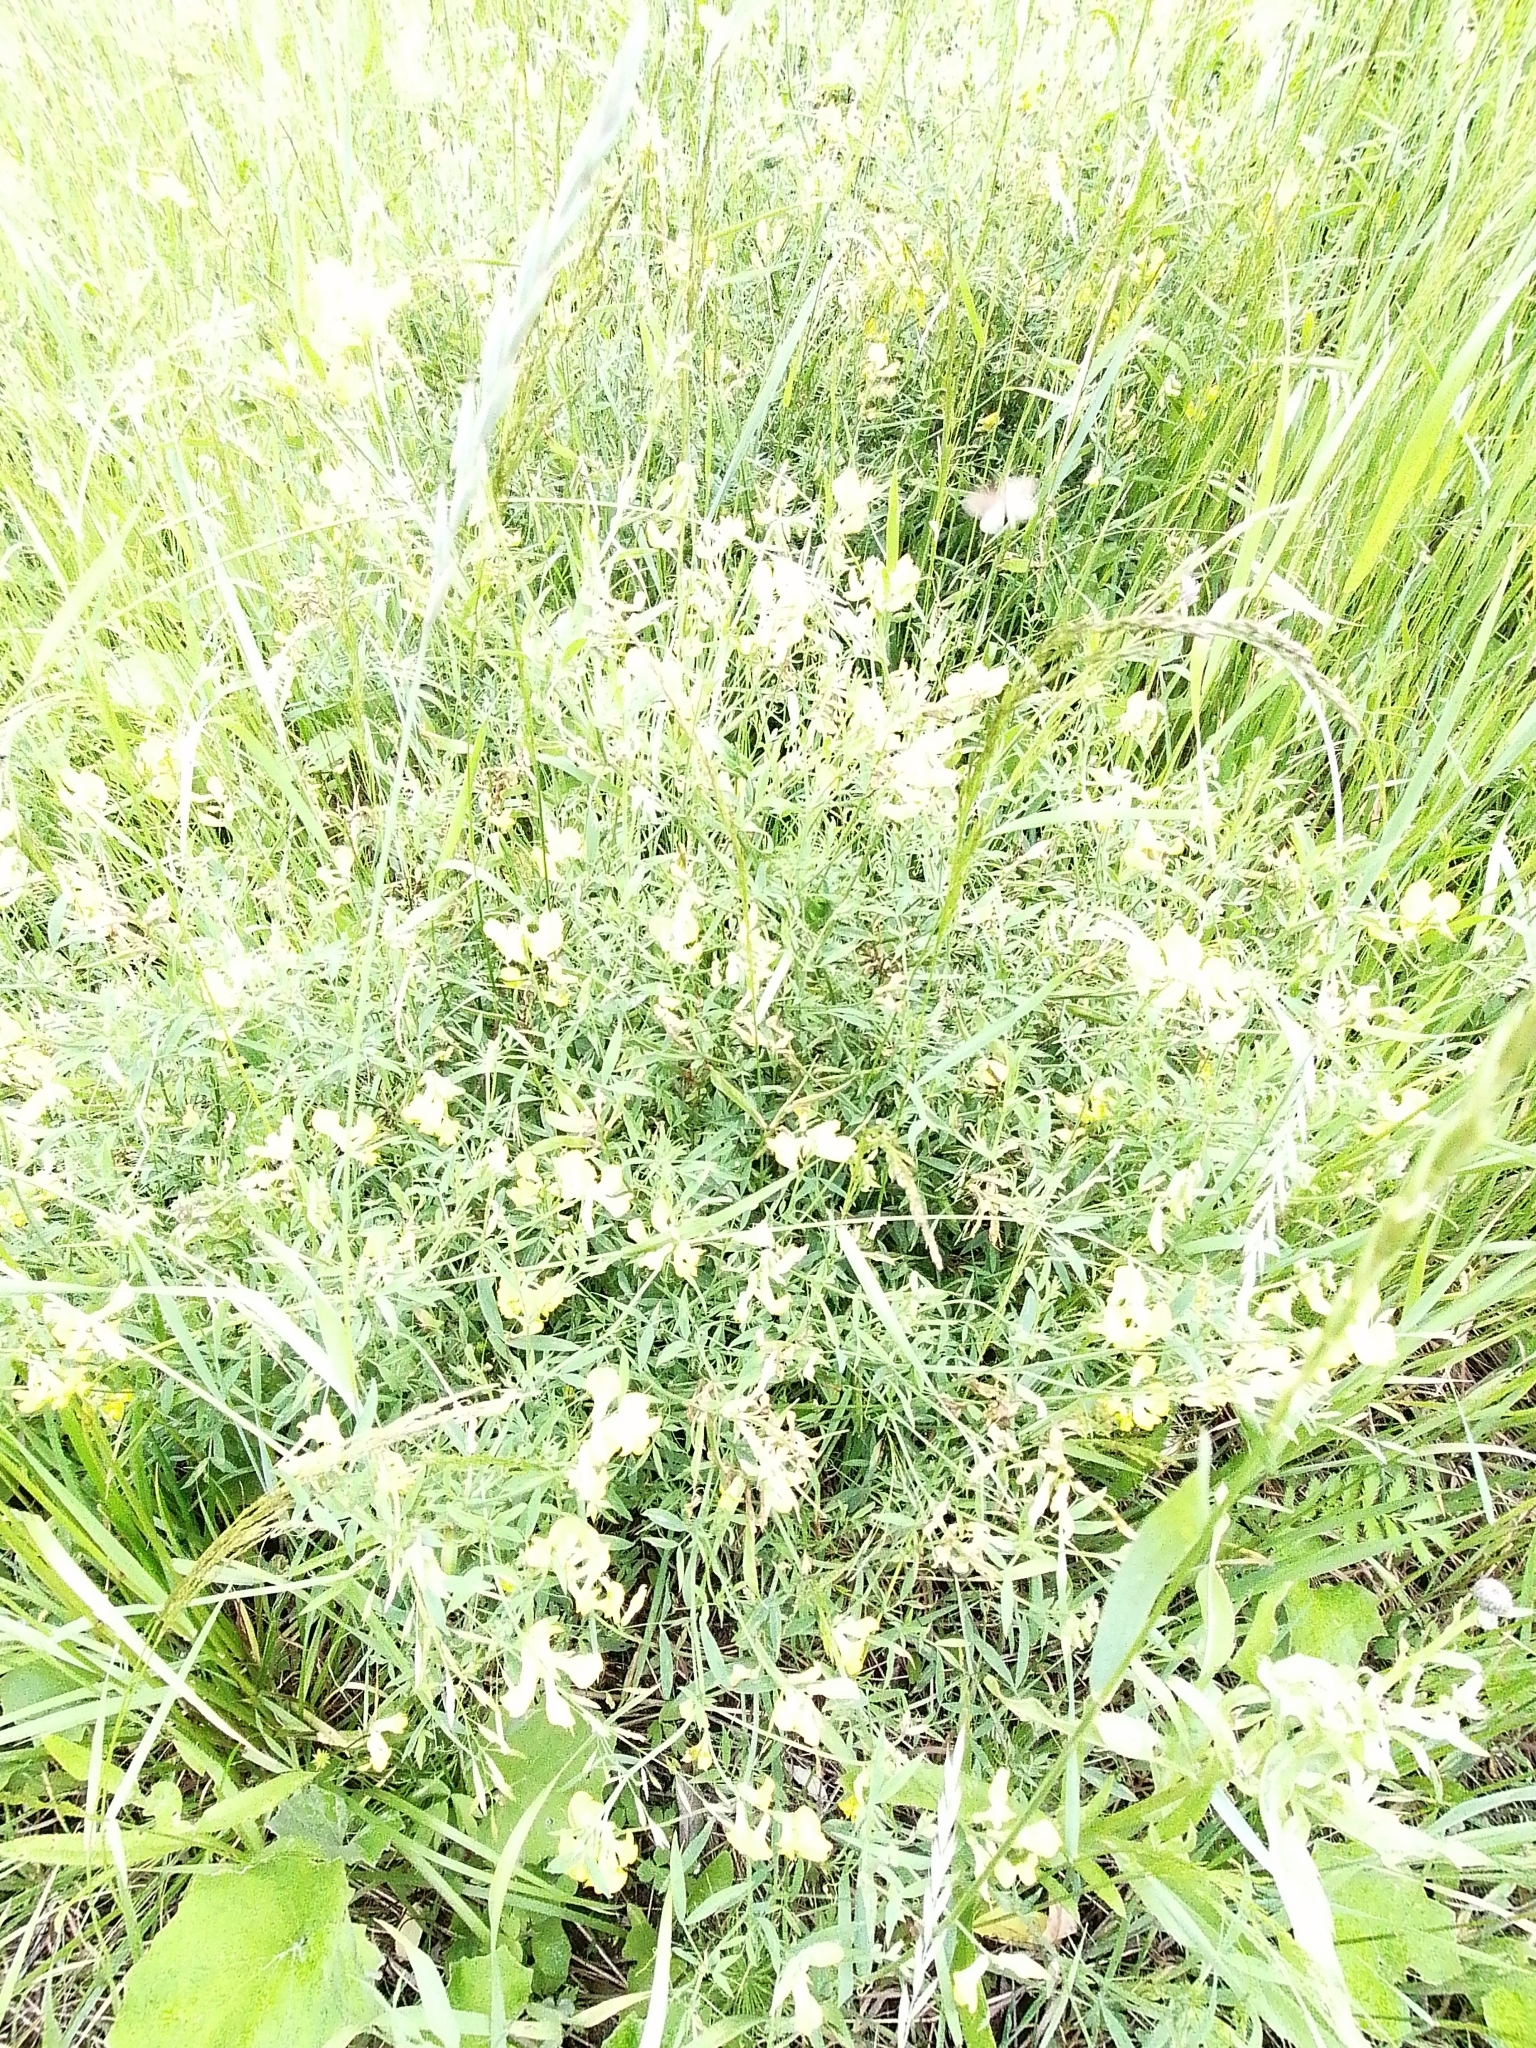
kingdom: Plantae
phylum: Tracheophyta
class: Magnoliopsida
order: Fabales
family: Fabaceae
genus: Melilotus
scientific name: Melilotus albus
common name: White melilot
